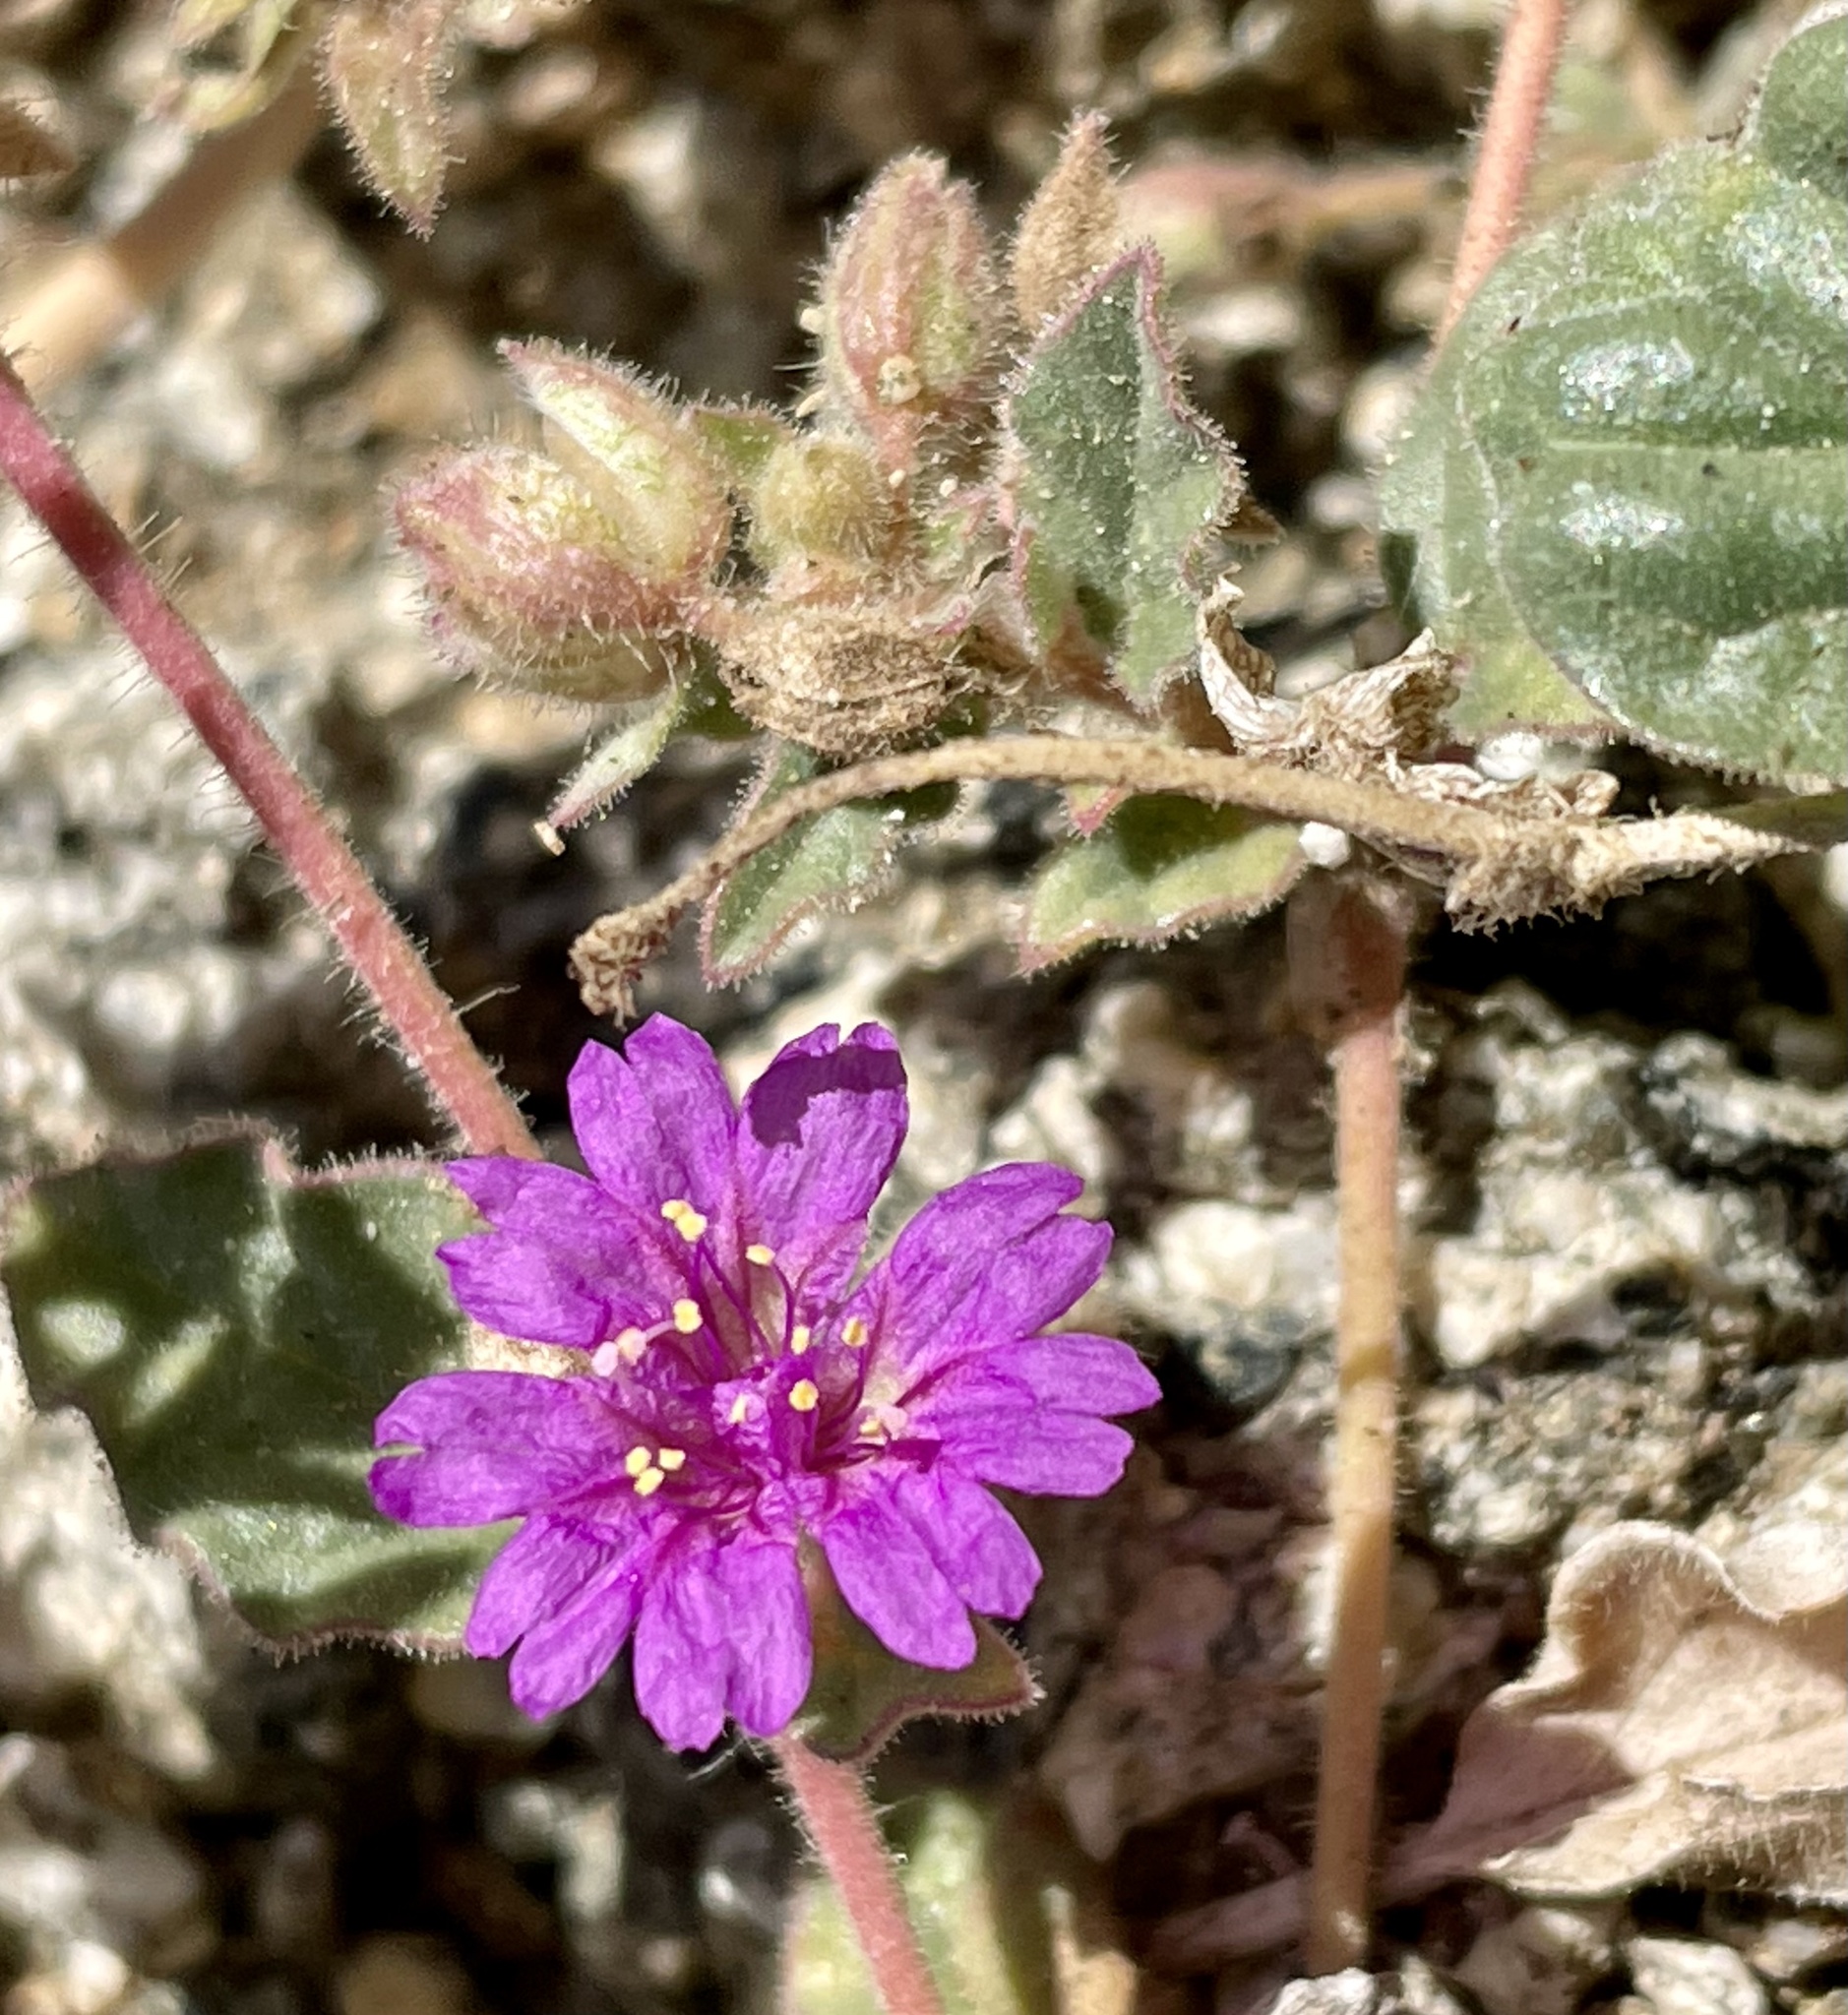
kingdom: Plantae
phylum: Tracheophyta
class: Magnoliopsida
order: Caryophyllales
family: Nyctaginaceae
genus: Allionia
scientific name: Allionia incarnata
